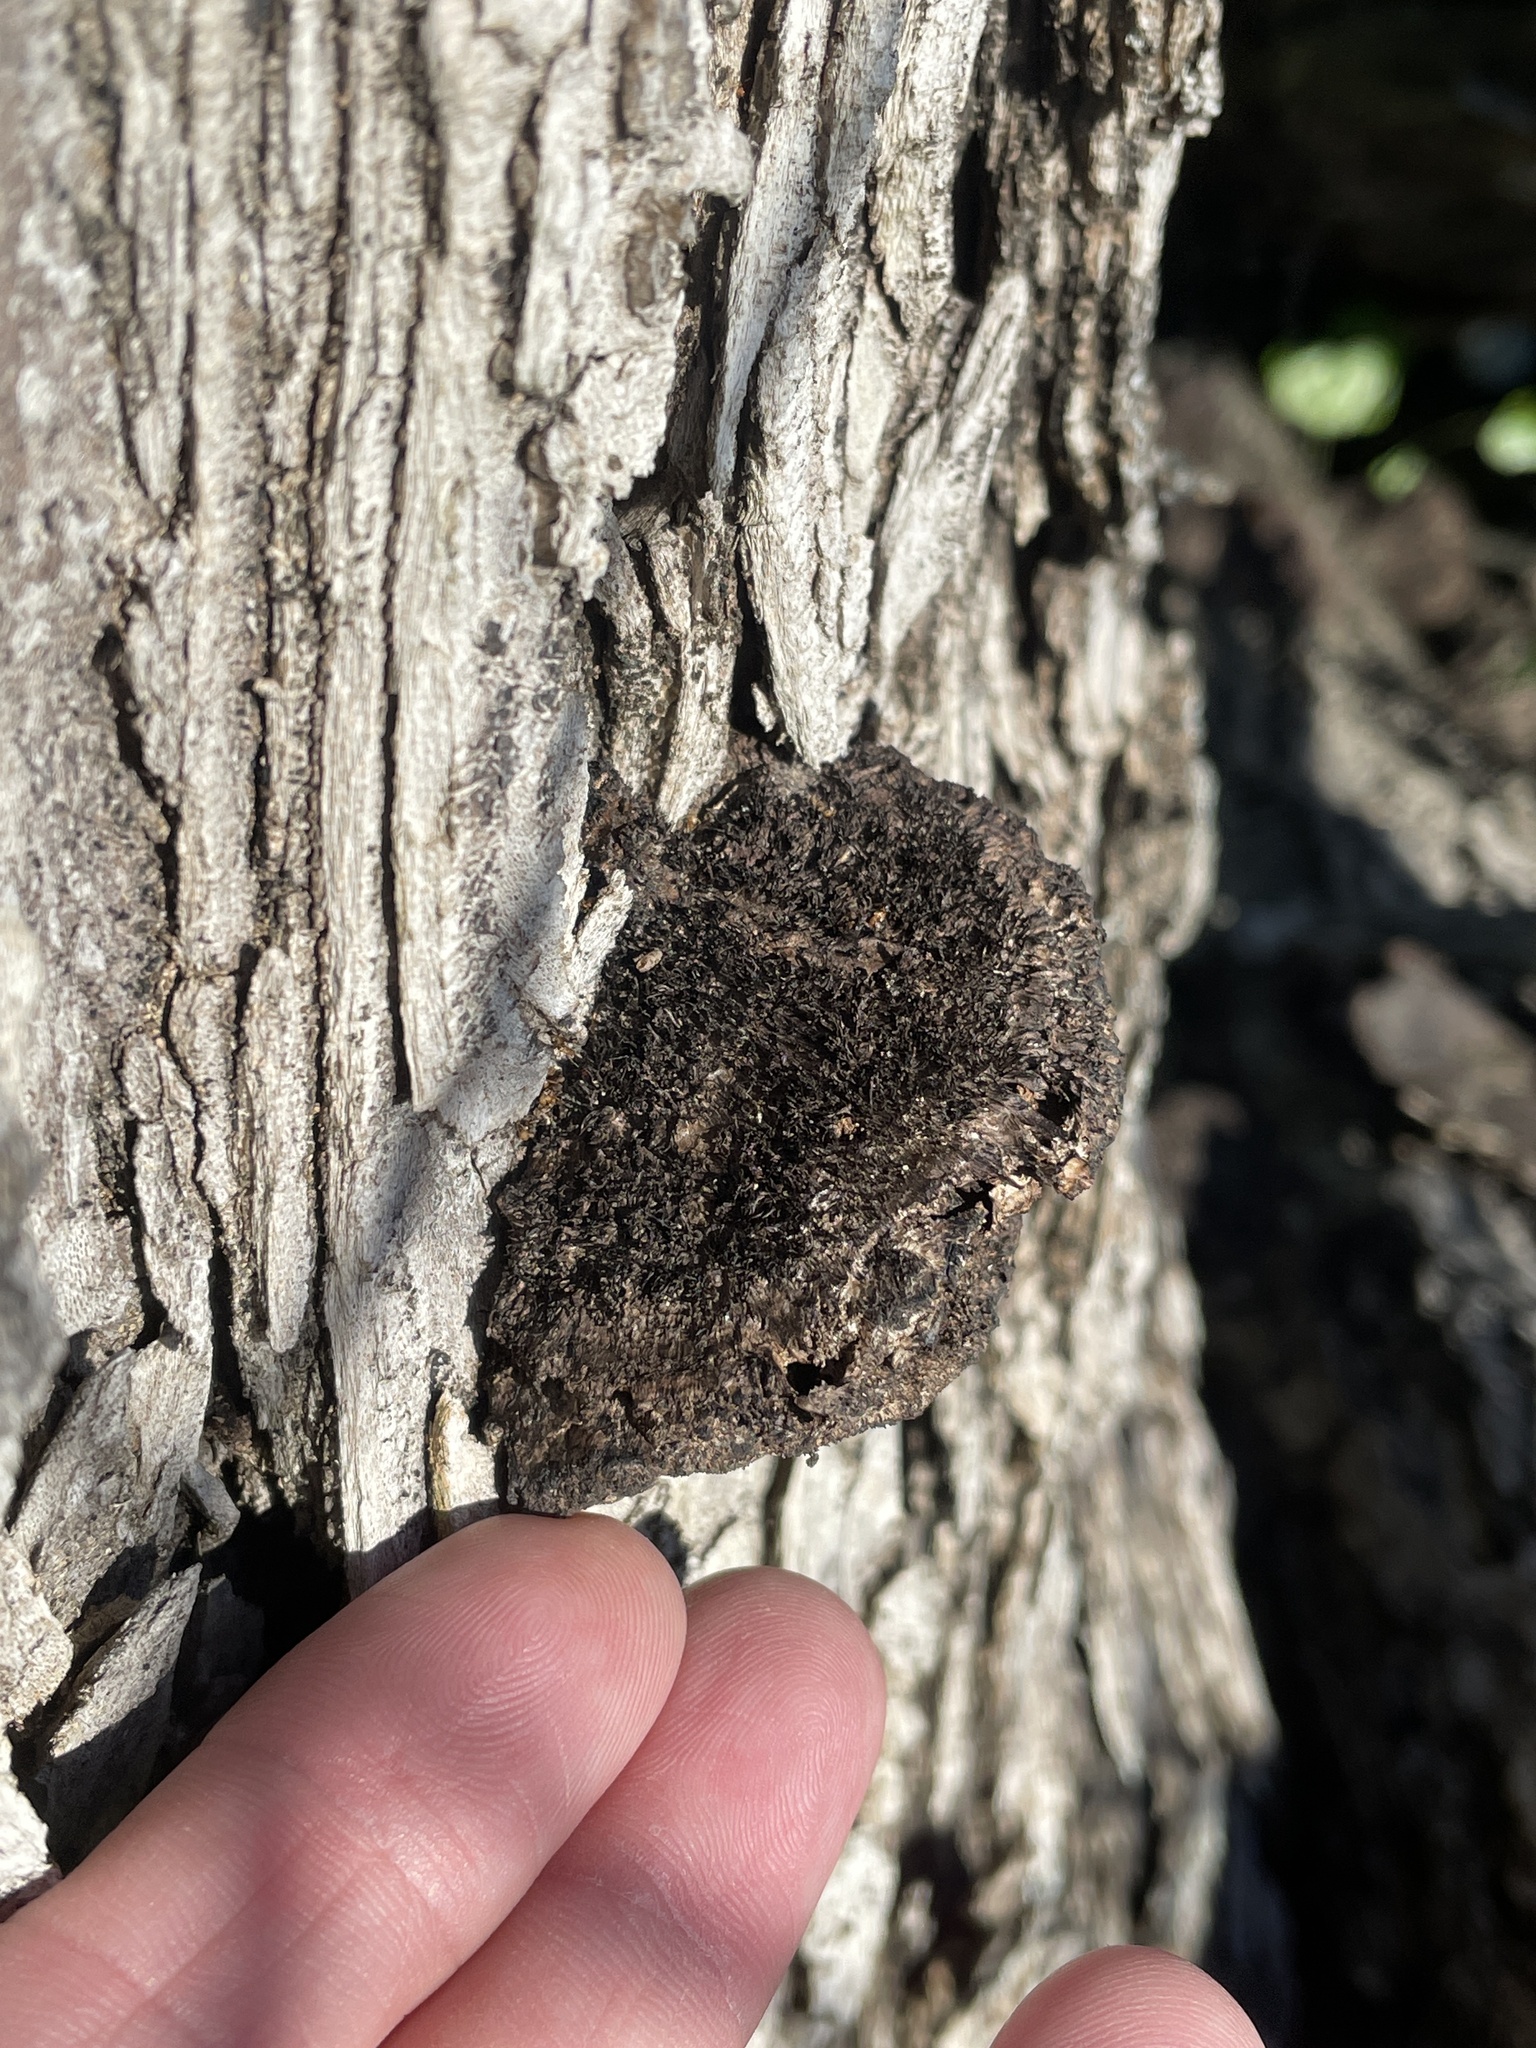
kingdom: Fungi
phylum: Basidiomycota
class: Agaricomycetes
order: Polyporales
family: Cerrenaceae
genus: Cerrena
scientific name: Cerrena hydnoides
